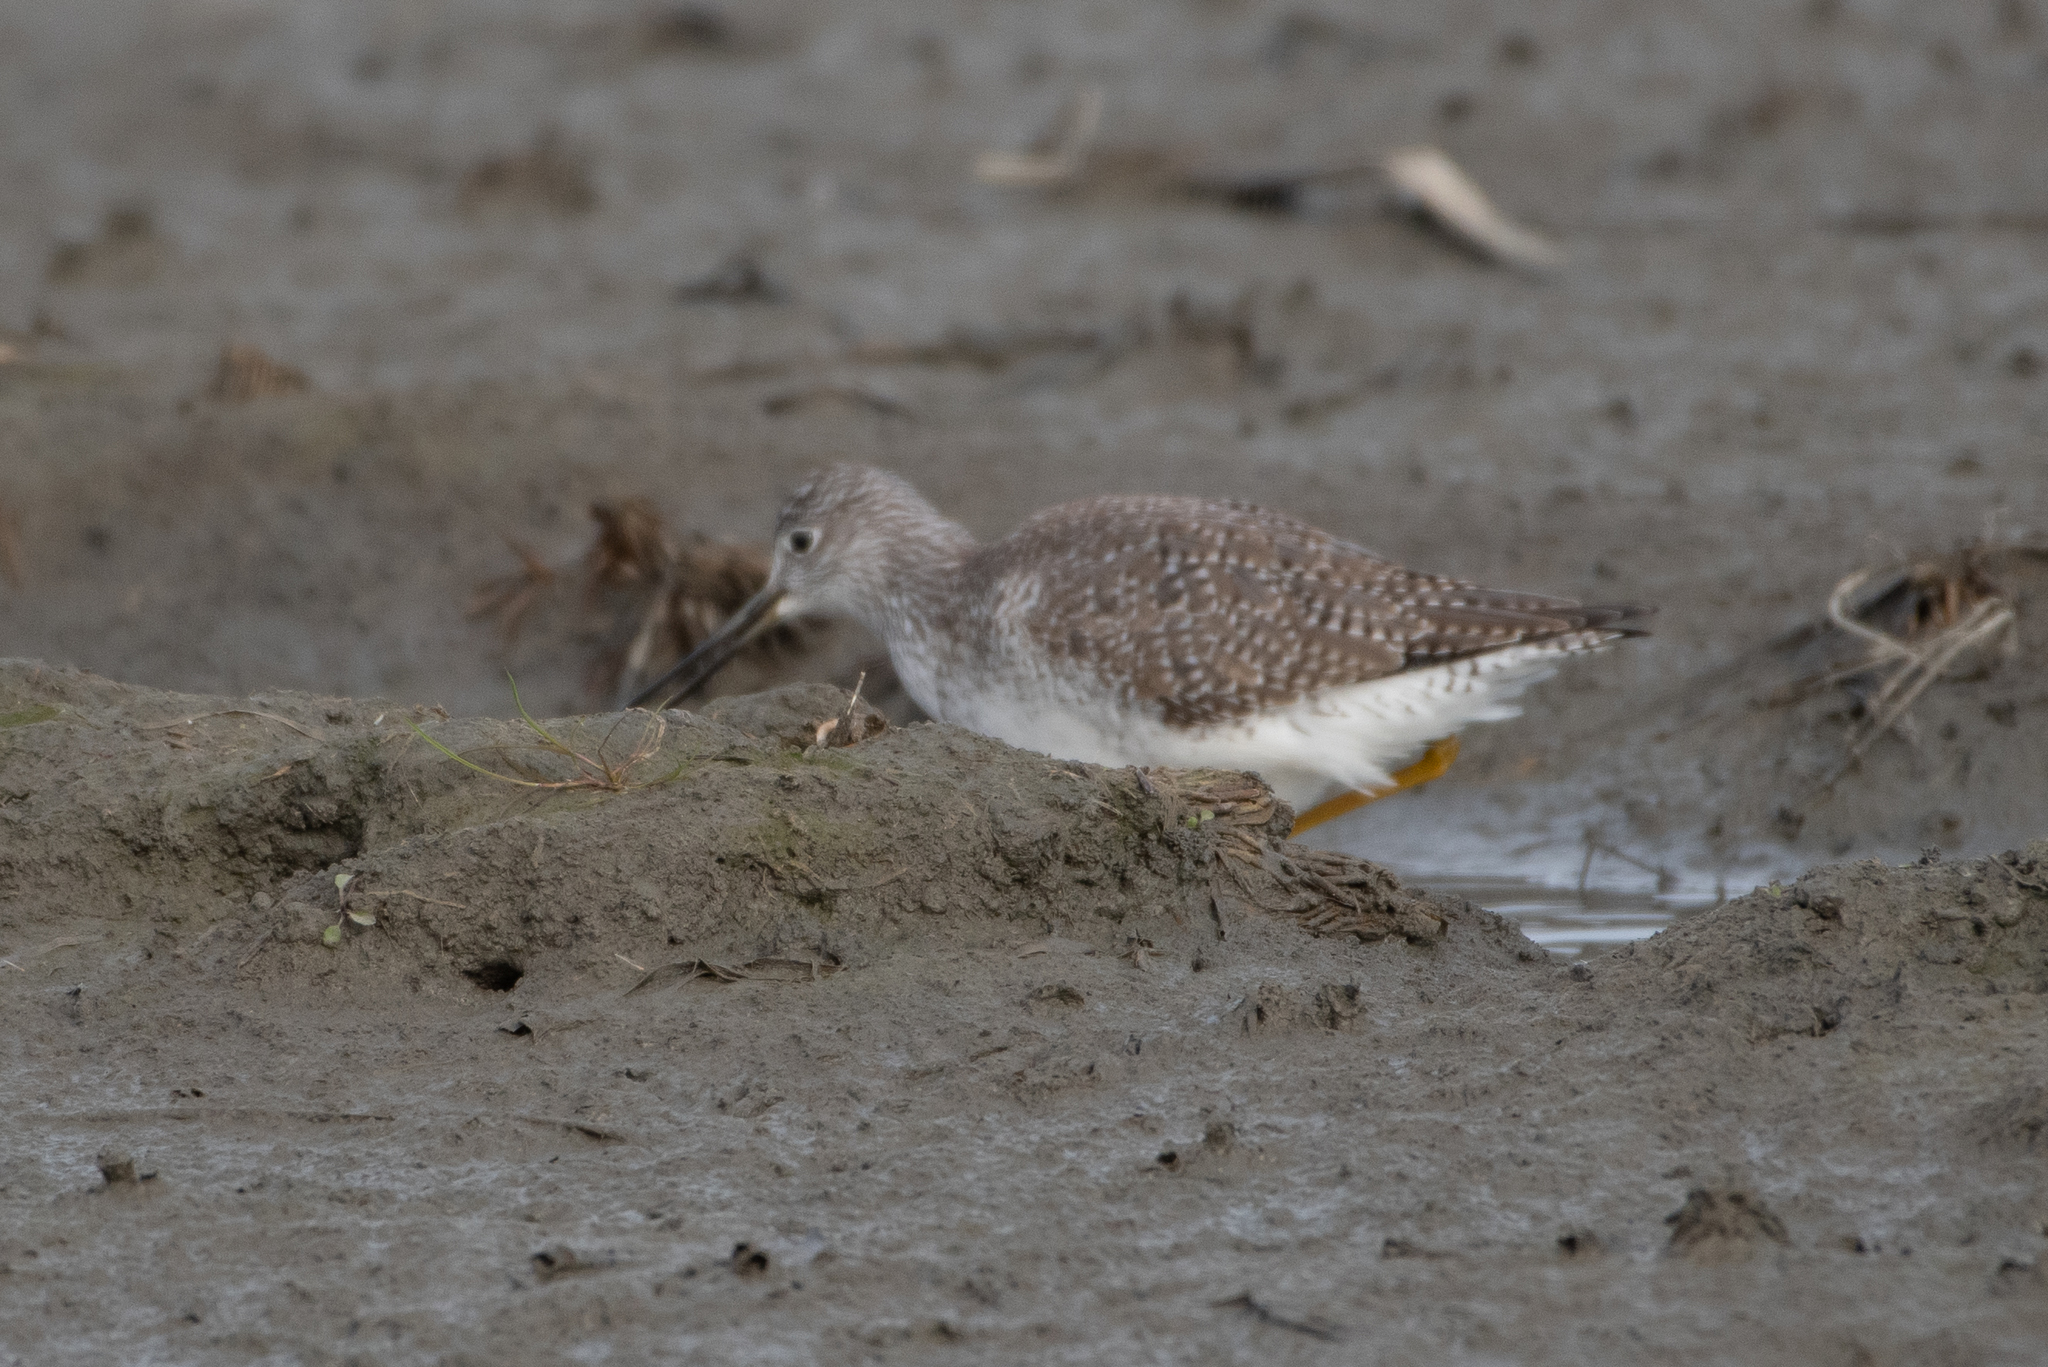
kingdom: Animalia
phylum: Chordata
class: Aves
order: Charadriiformes
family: Scolopacidae
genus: Tringa
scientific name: Tringa melanoleuca
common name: Greater yellowlegs
